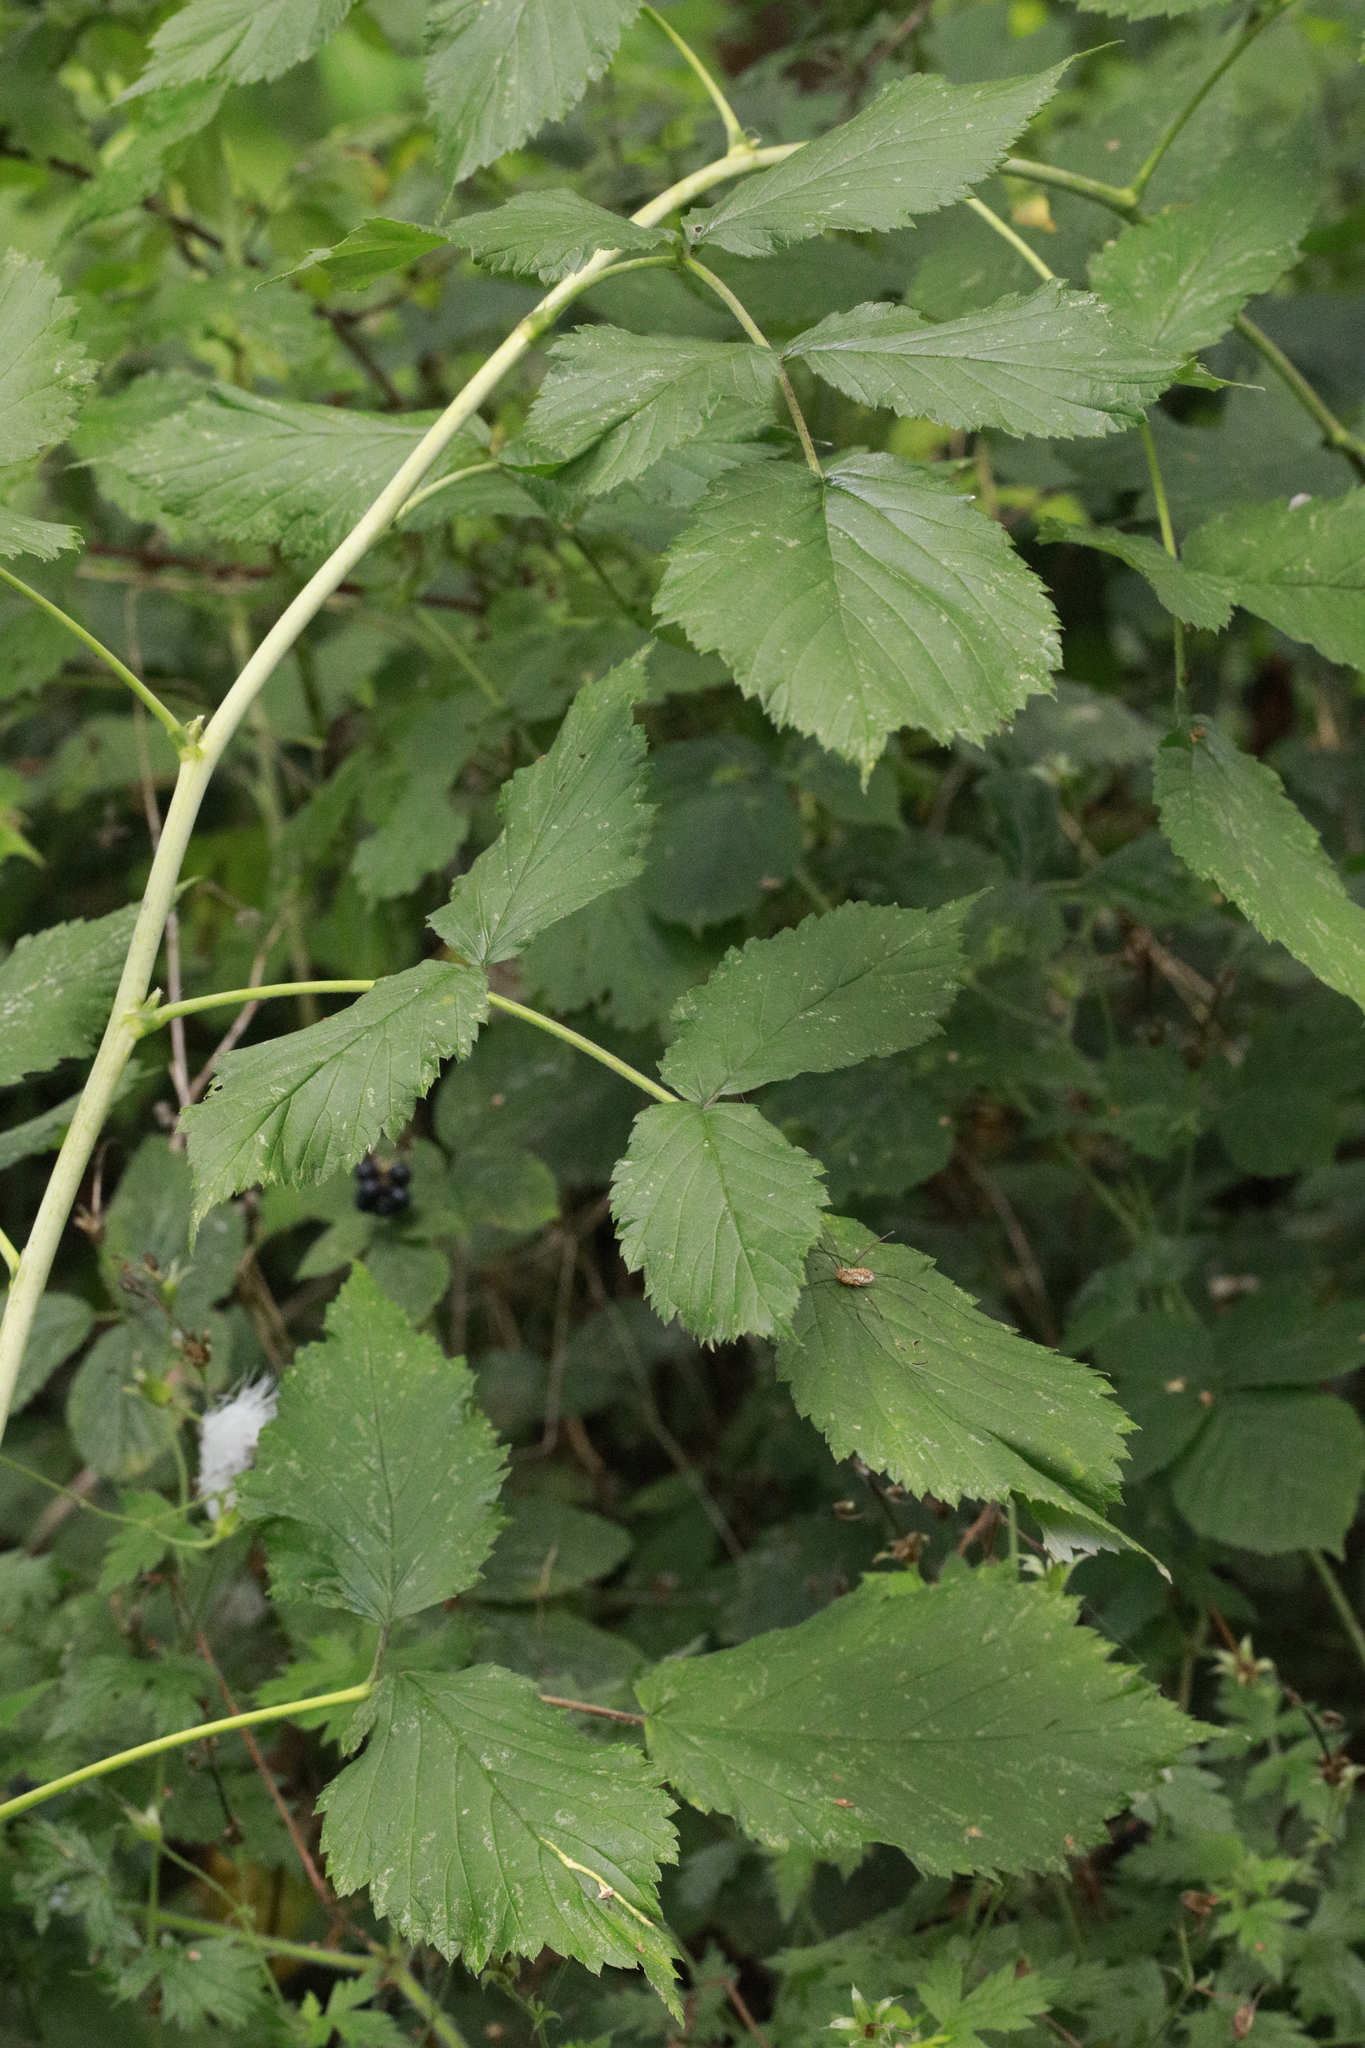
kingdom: Plantae
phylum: Tracheophyta
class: Magnoliopsida
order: Rosales
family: Rosaceae
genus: Rubus
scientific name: Rubus idaeus
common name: Raspberry
